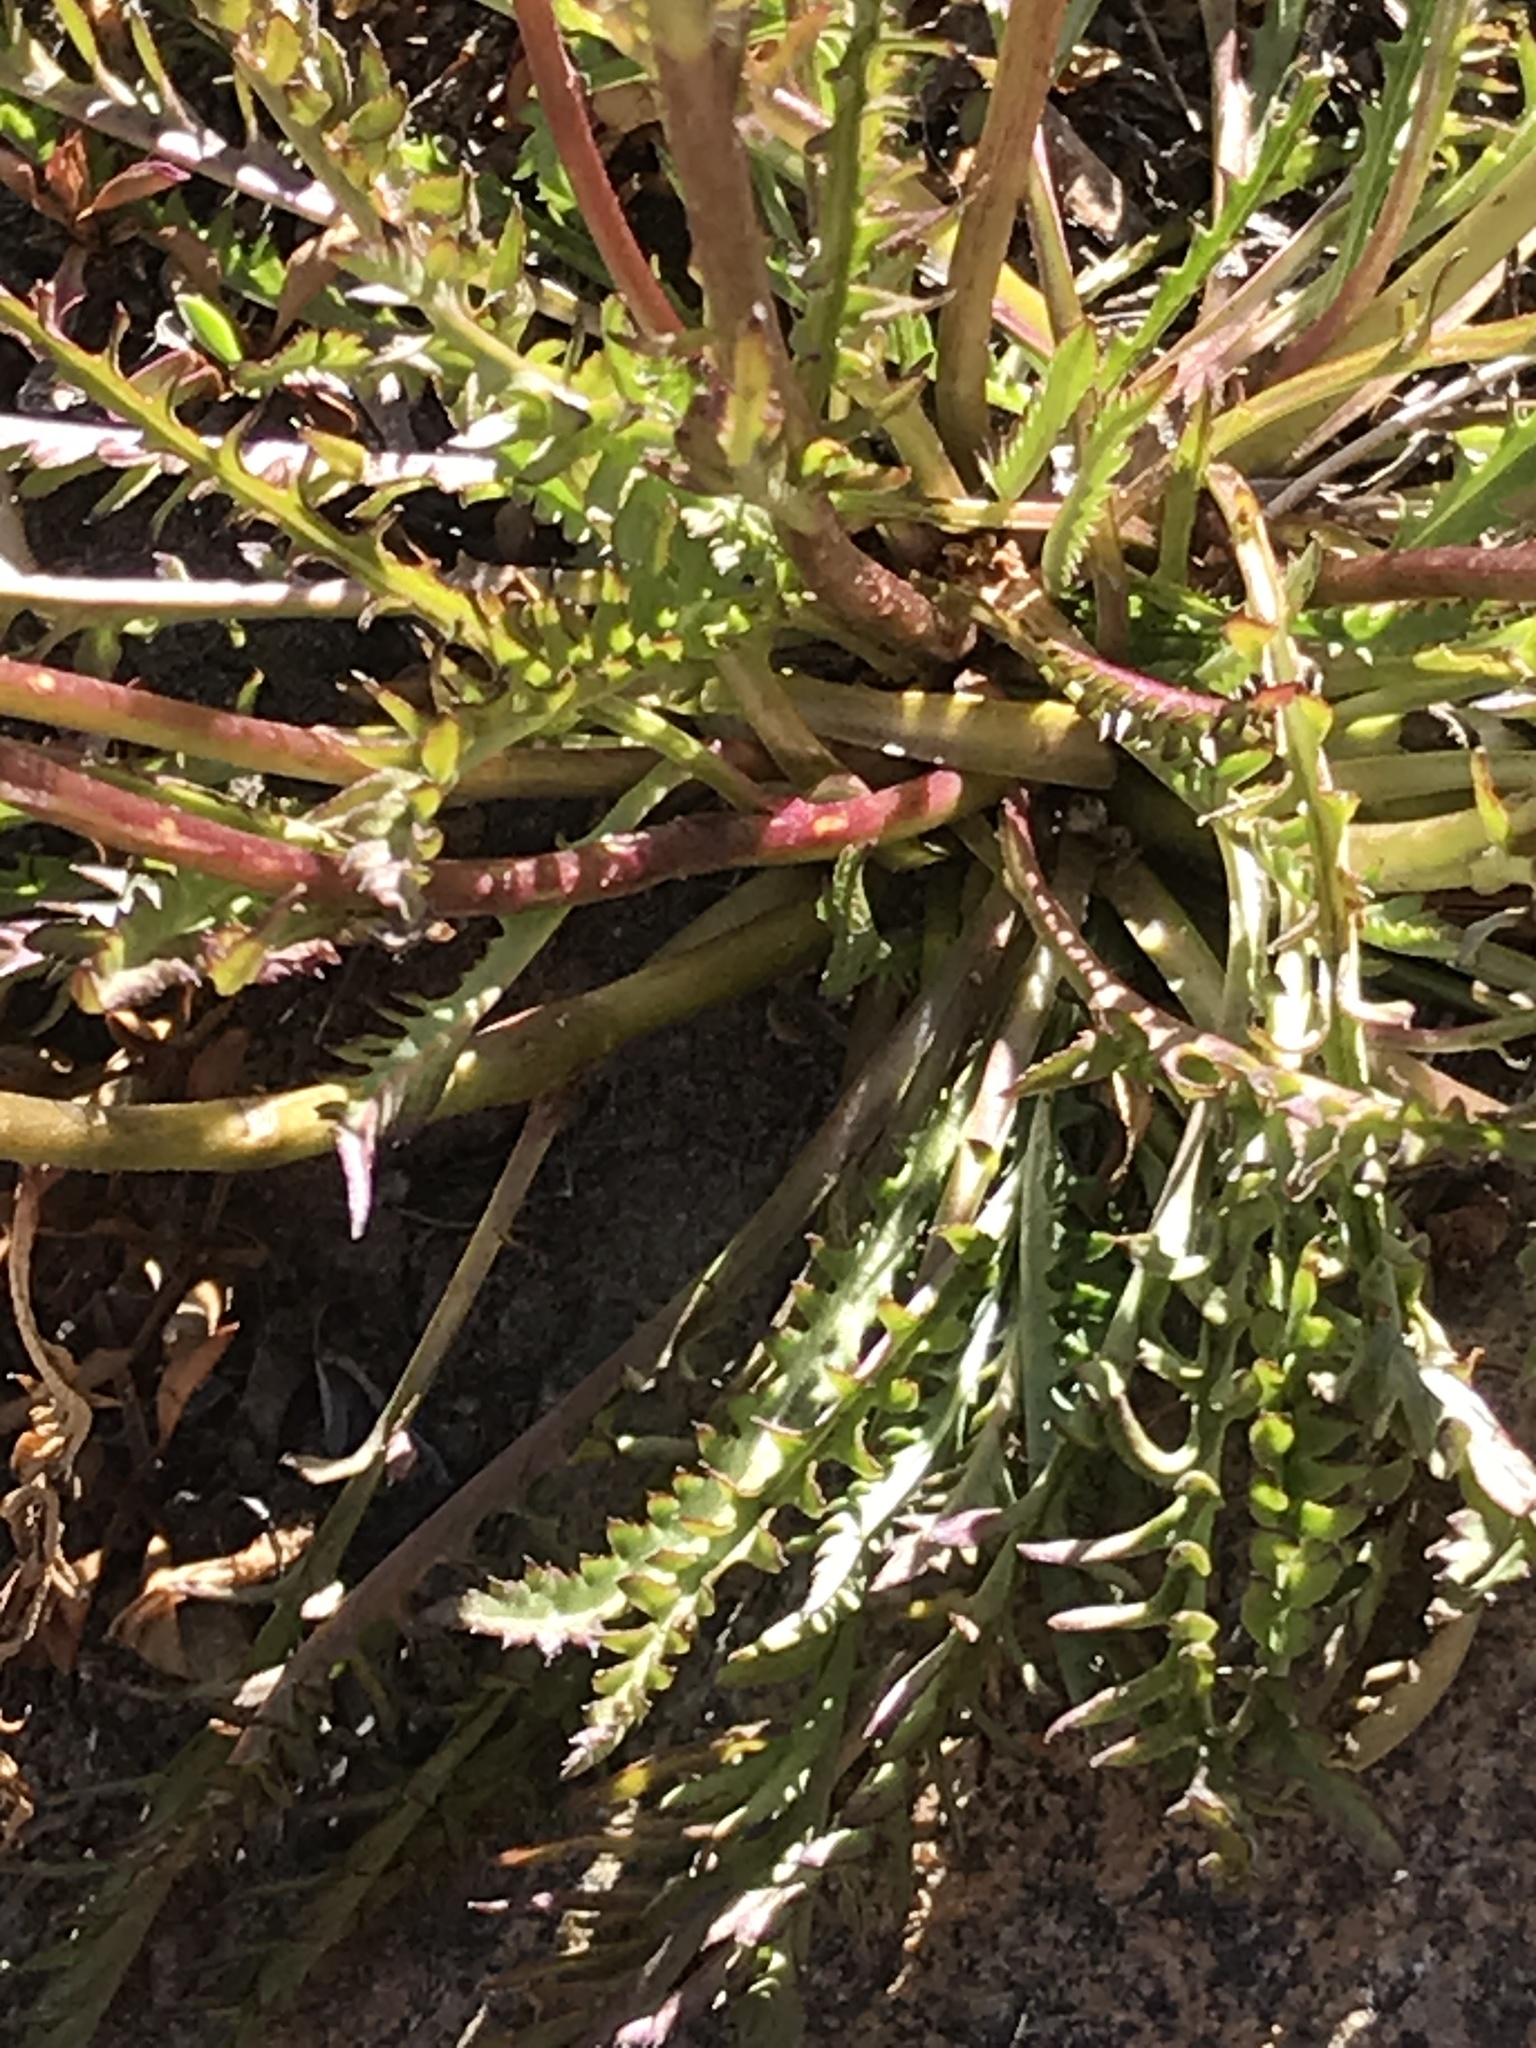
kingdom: Plantae
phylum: Tracheophyta
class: Magnoliopsida
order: Lamiales
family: Orobanchaceae
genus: Pedicularis
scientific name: Pedicularis attollens
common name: Slender pedicularis
